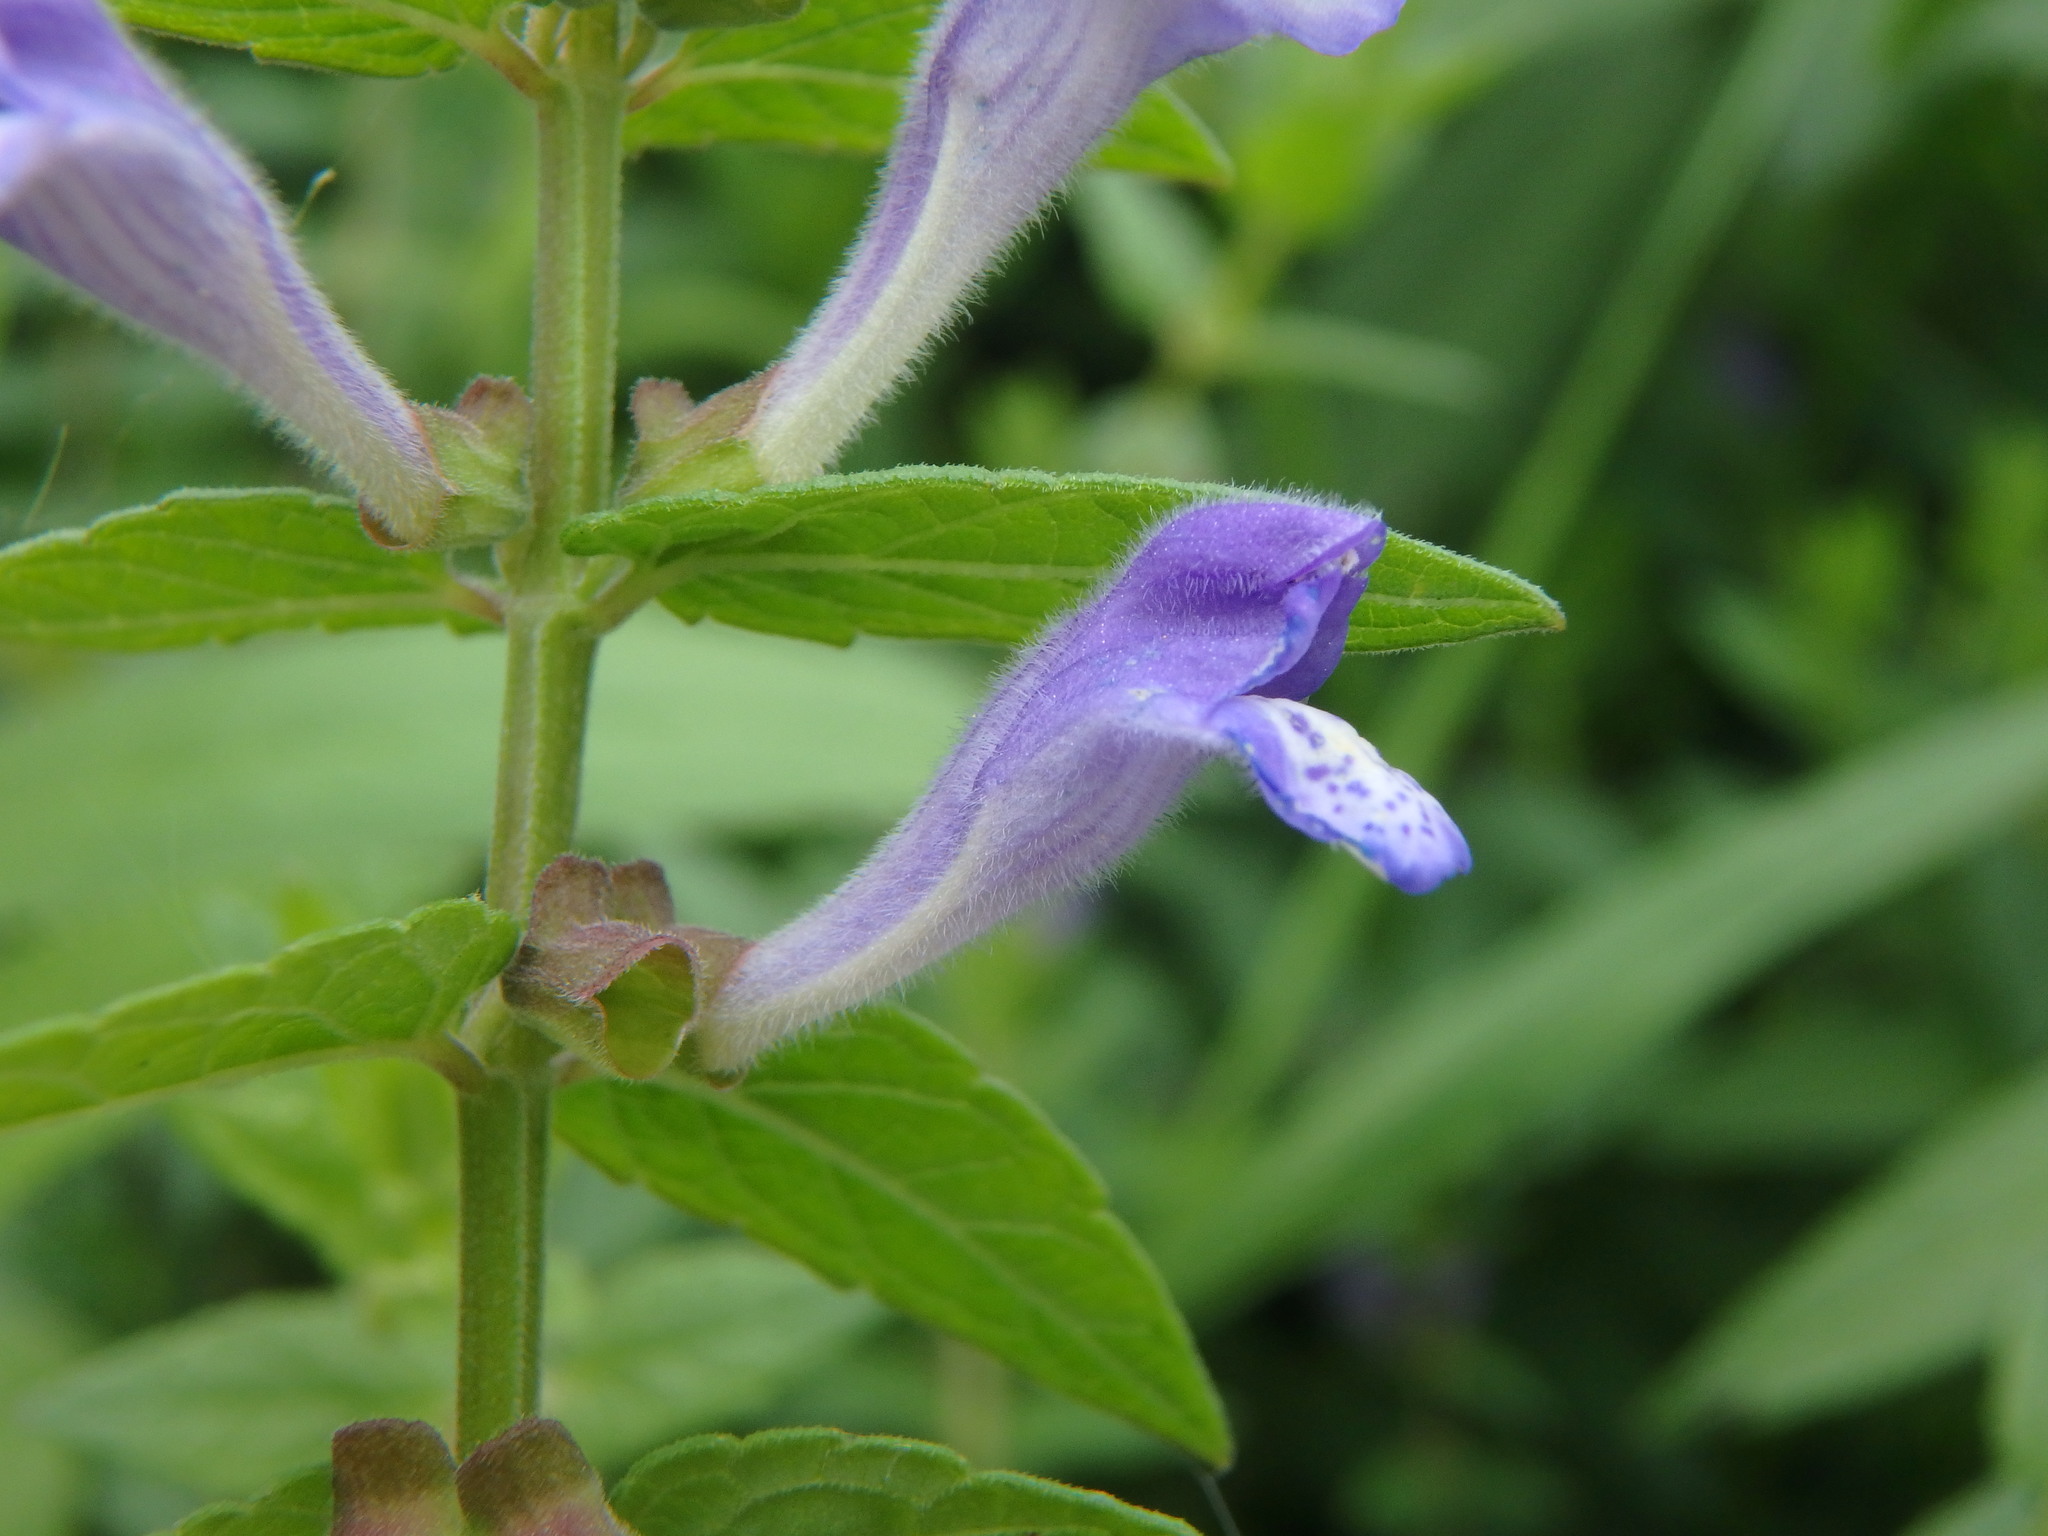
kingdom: Plantae
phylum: Tracheophyta
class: Magnoliopsida
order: Lamiales
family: Lamiaceae
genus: Scutellaria
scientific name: Scutellaria galericulata
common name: Skullcap
